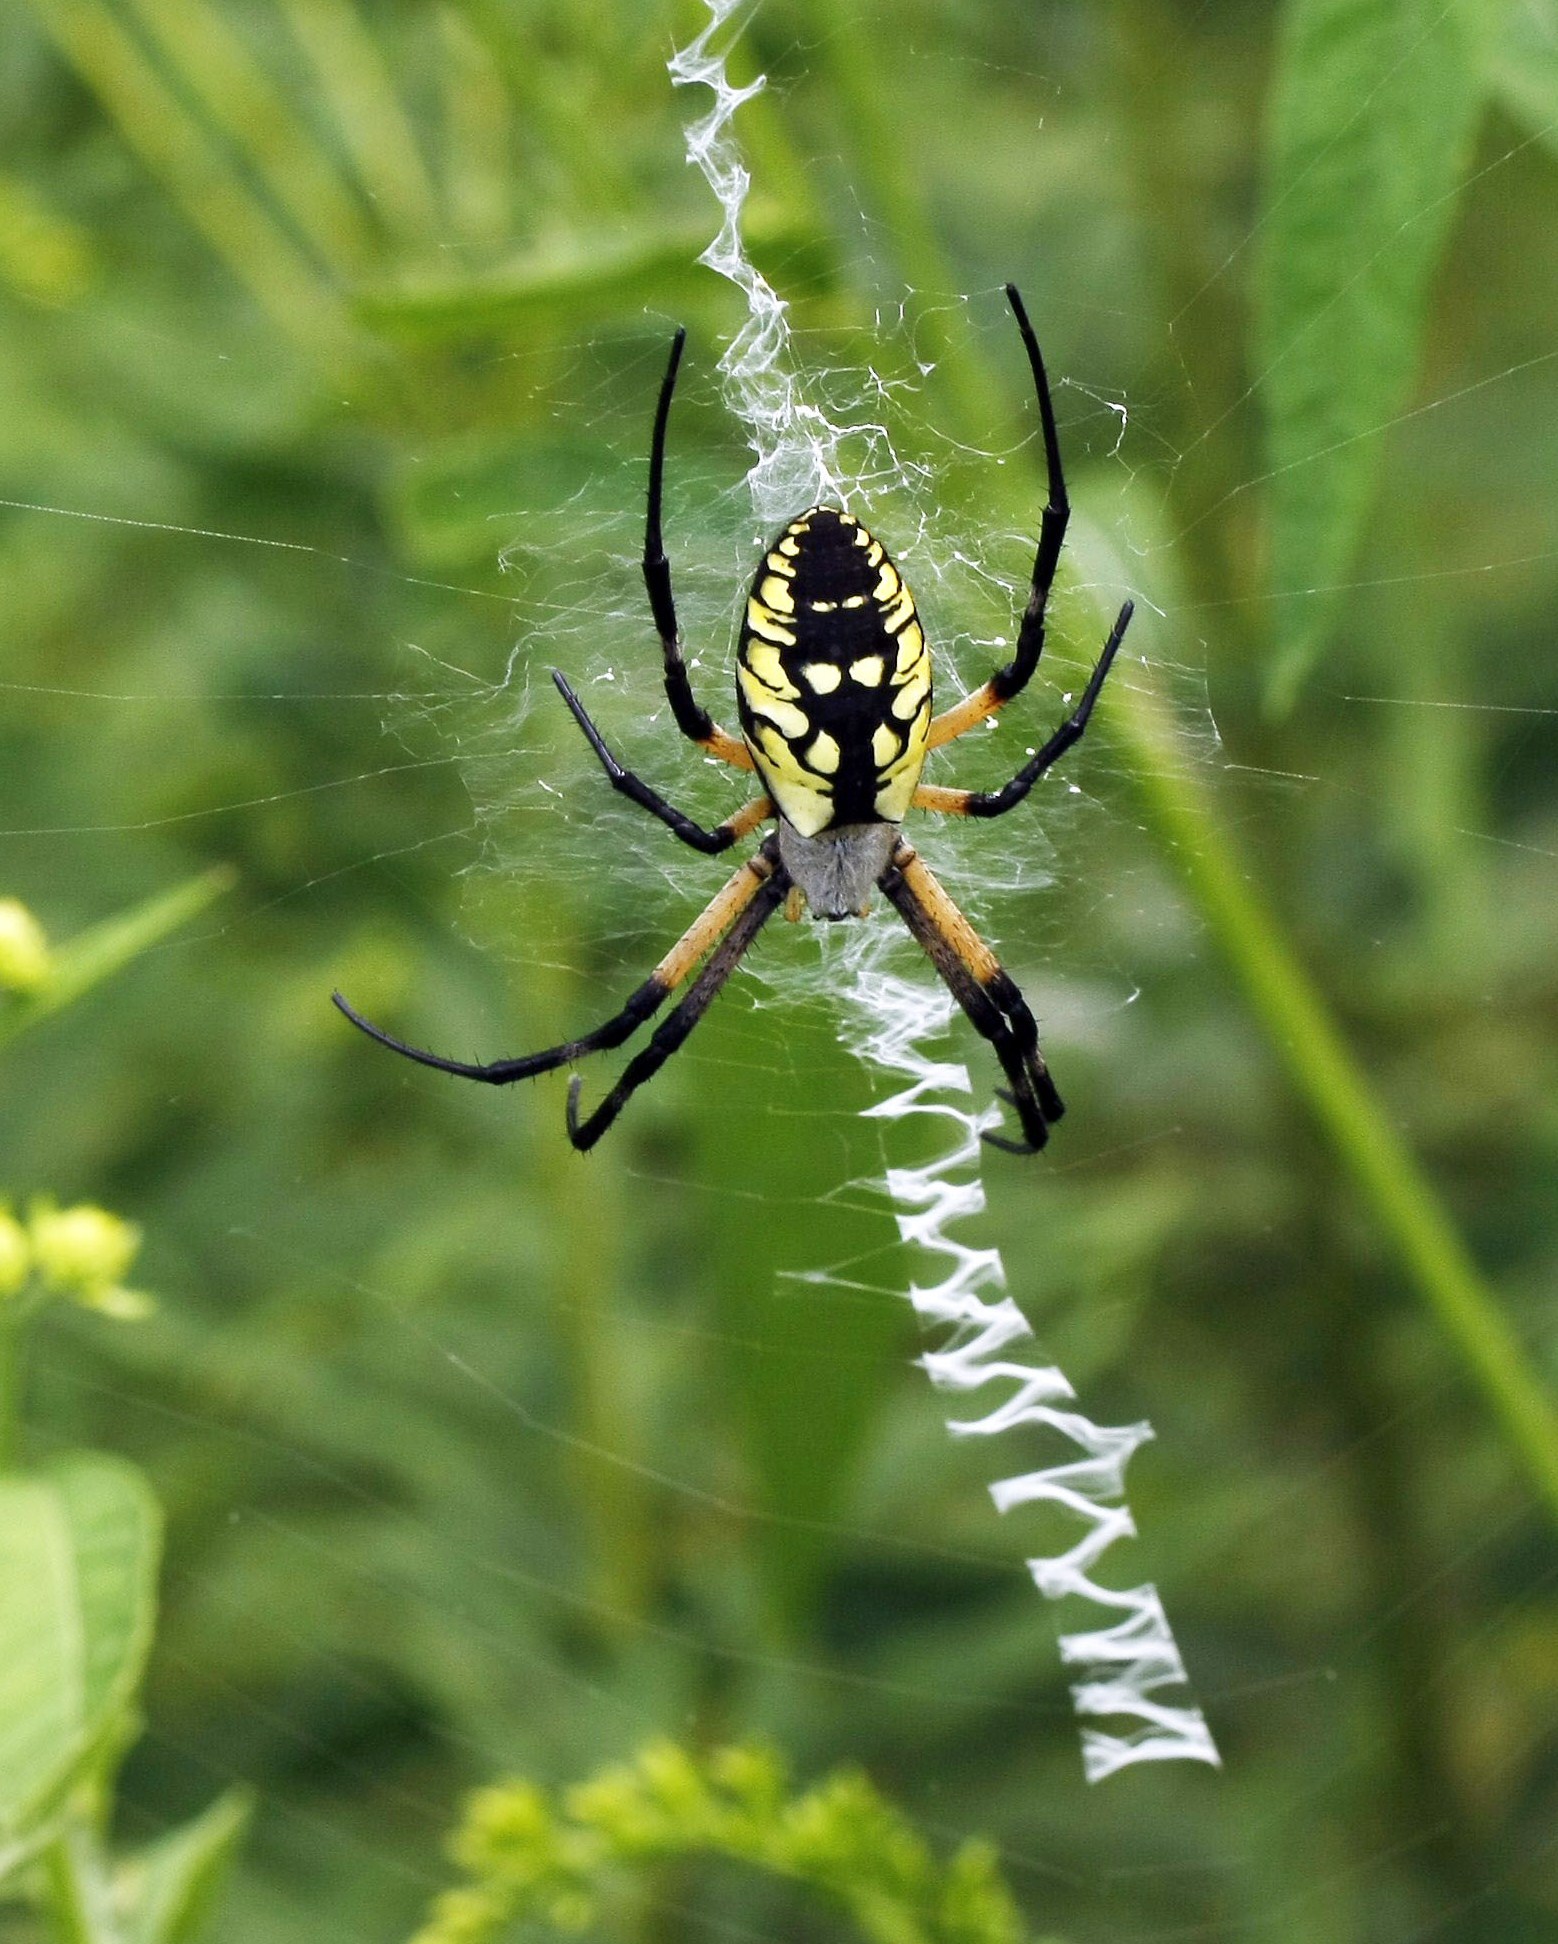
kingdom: Animalia
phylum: Arthropoda
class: Arachnida
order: Araneae
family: Araneidae
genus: Argiope
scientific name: Argiope aurantia
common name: Orb weavers
